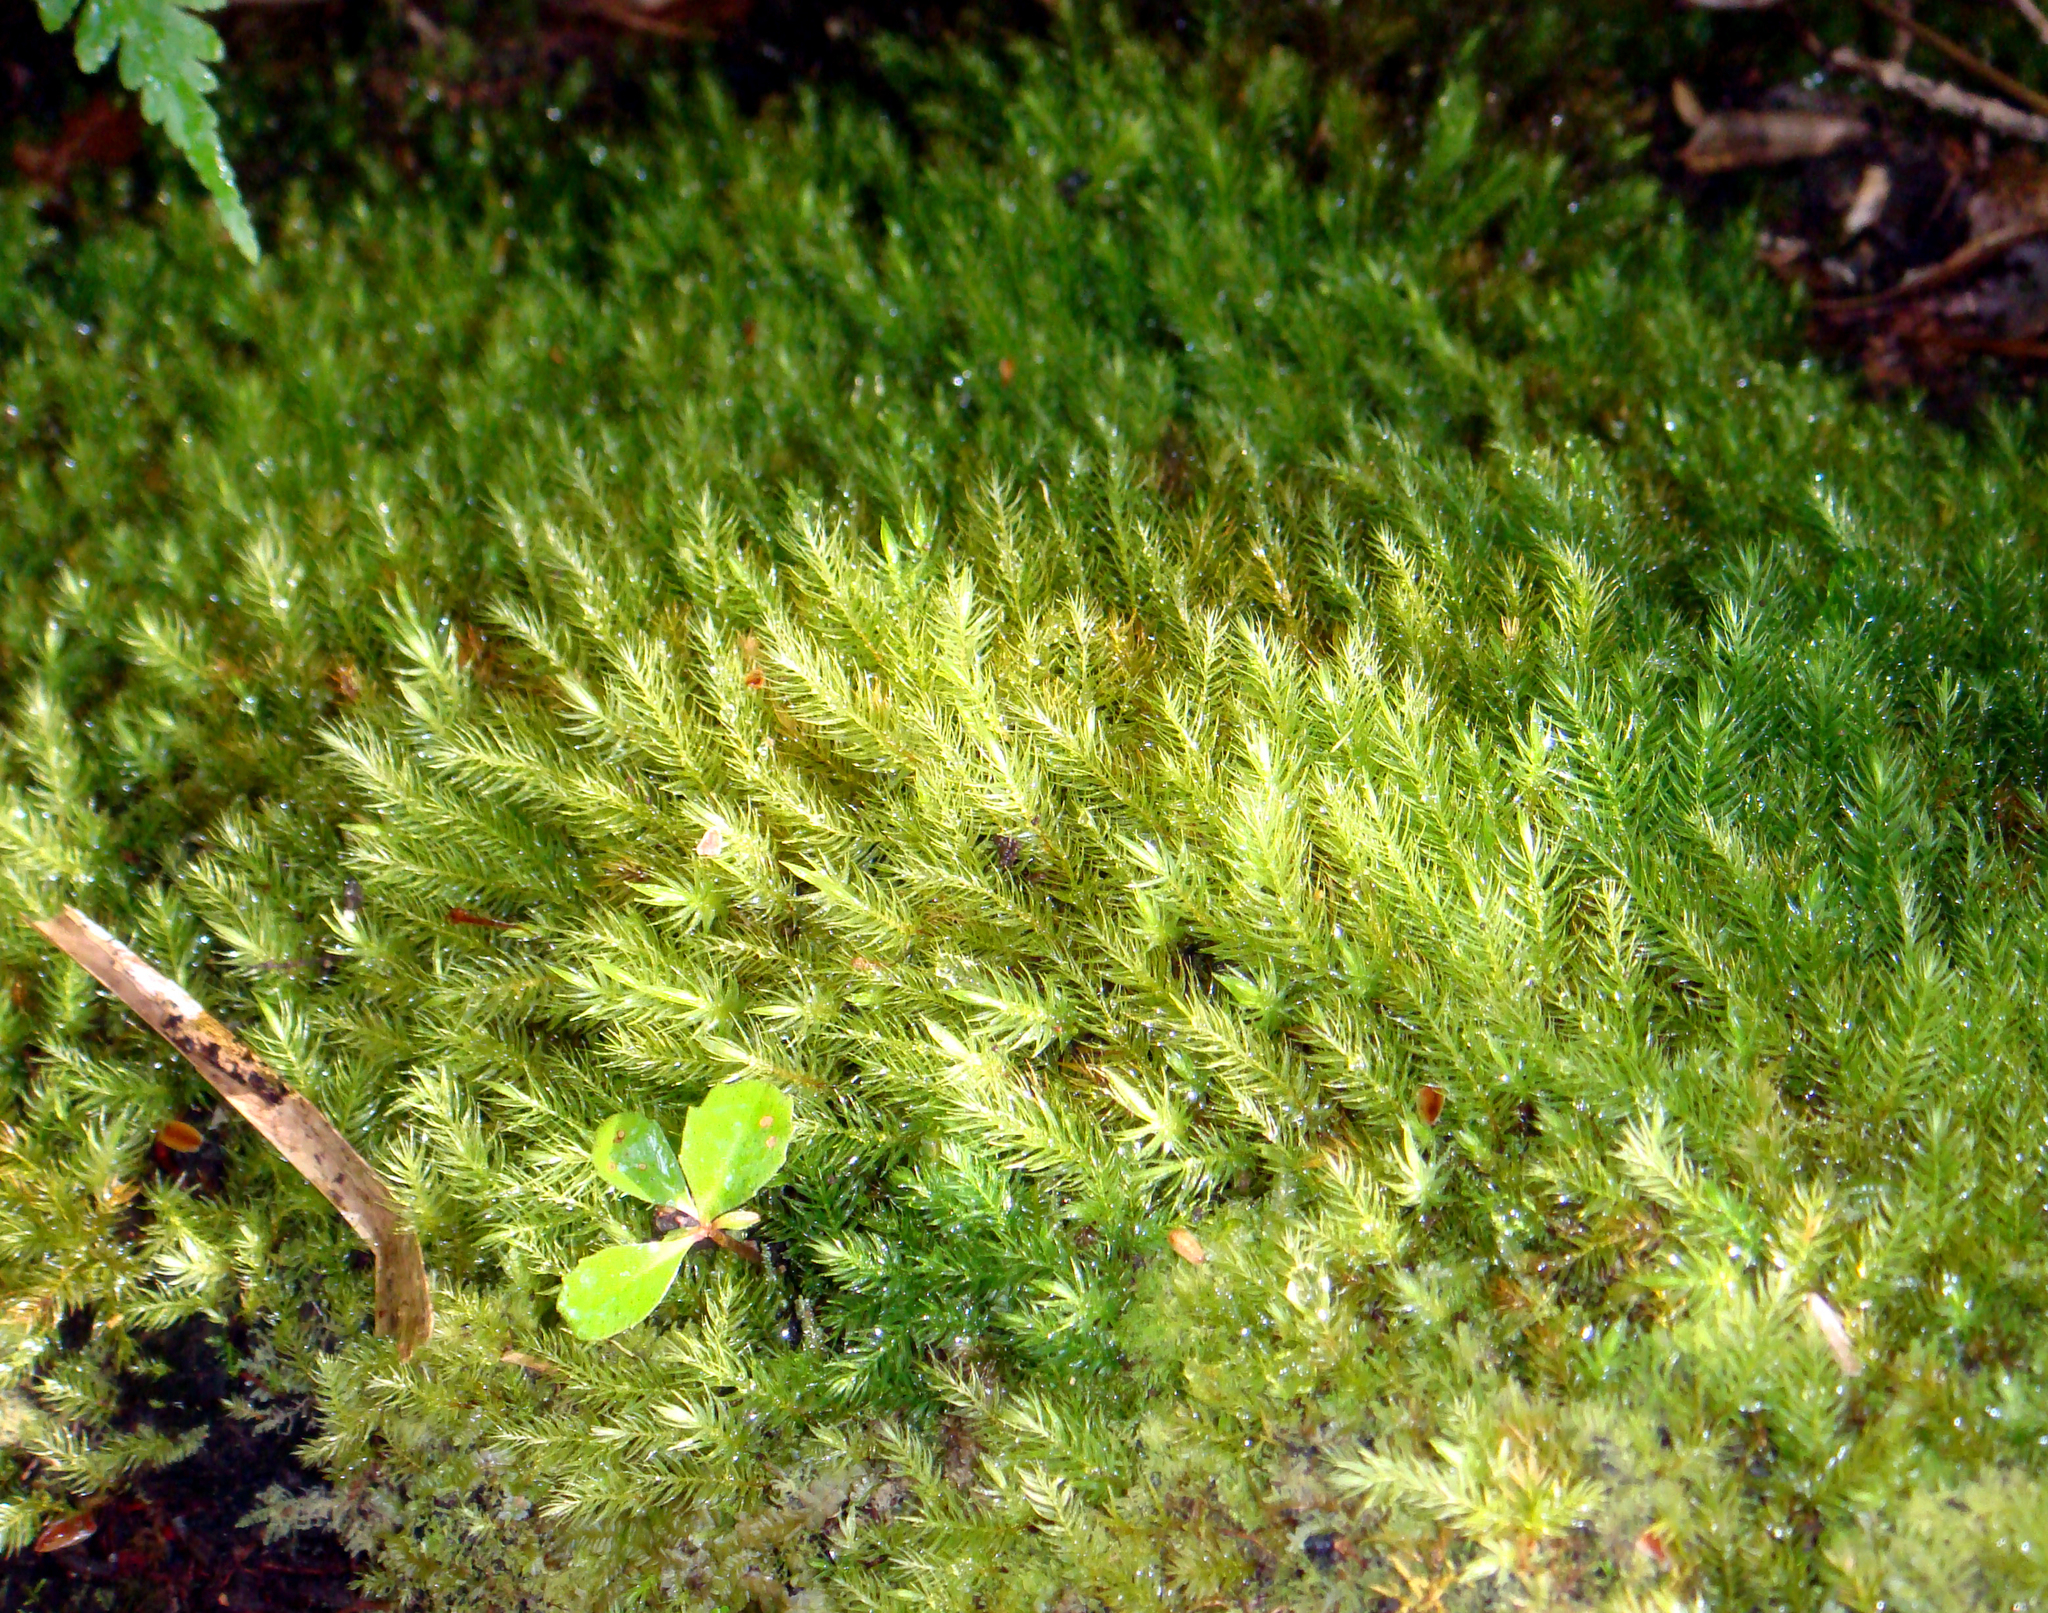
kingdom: Plantae
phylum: Bryophyta
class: Bryopsida
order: Rhizogoniales
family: Calomniaceae
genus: Pyrrhobryum
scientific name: Pyrrhobryum paramattense
